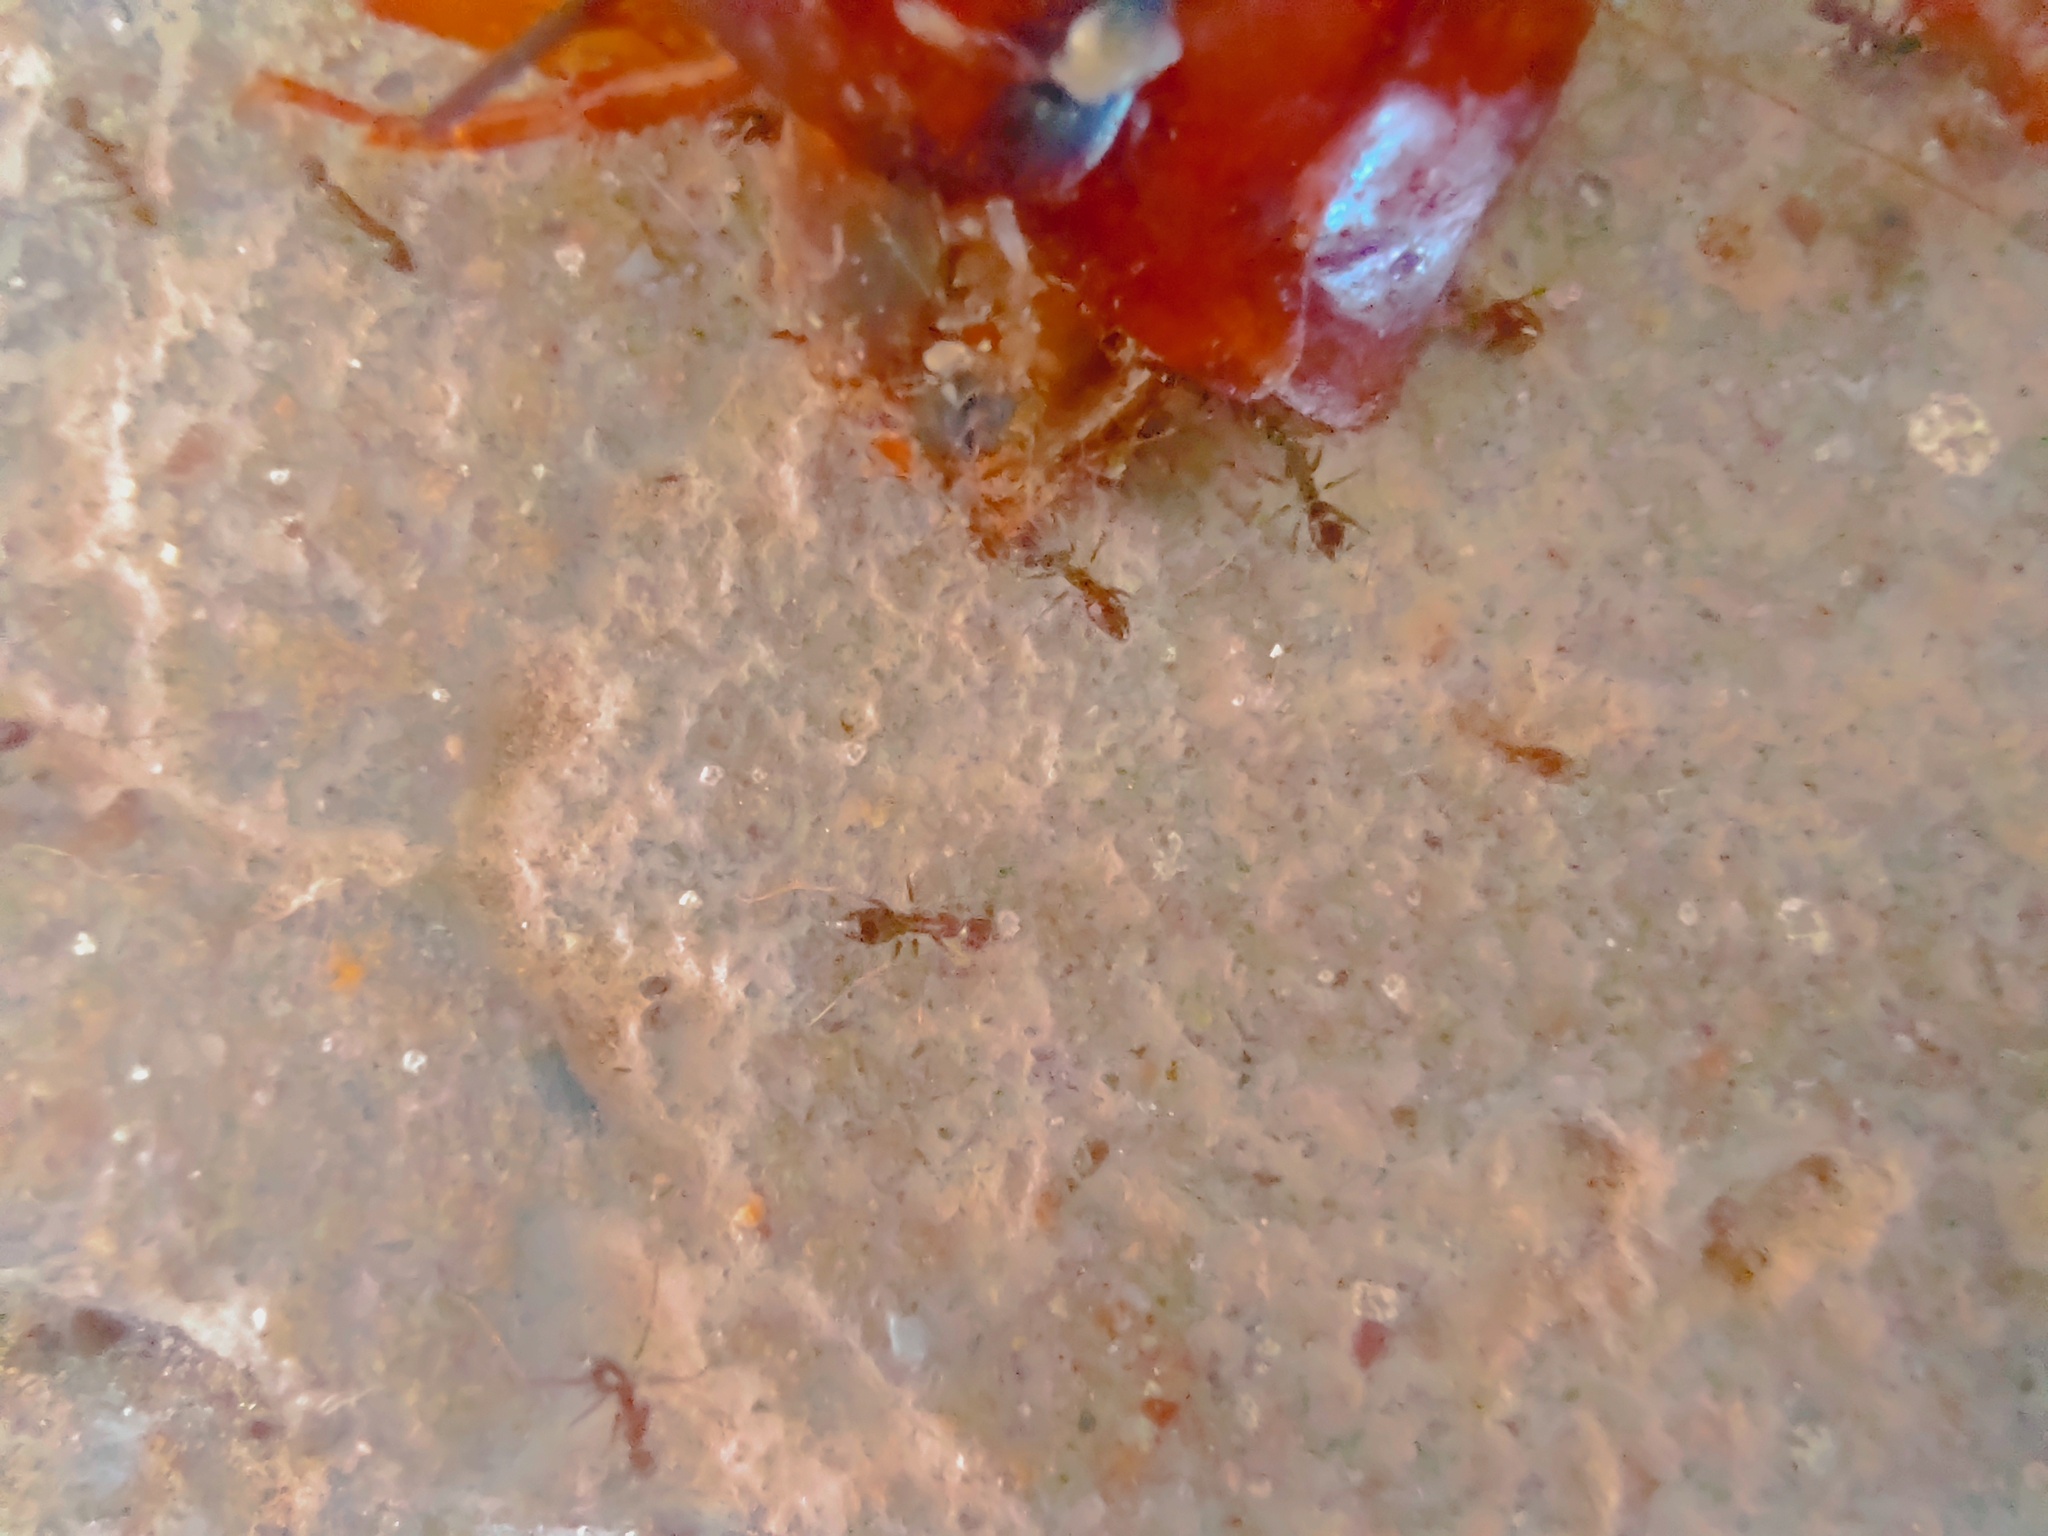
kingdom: Animalia
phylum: Arthropoda
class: Insecta
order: Hymenoptera
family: Formicidae
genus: Anoplolepis
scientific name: Anoplolepis gracilipes
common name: Ant
